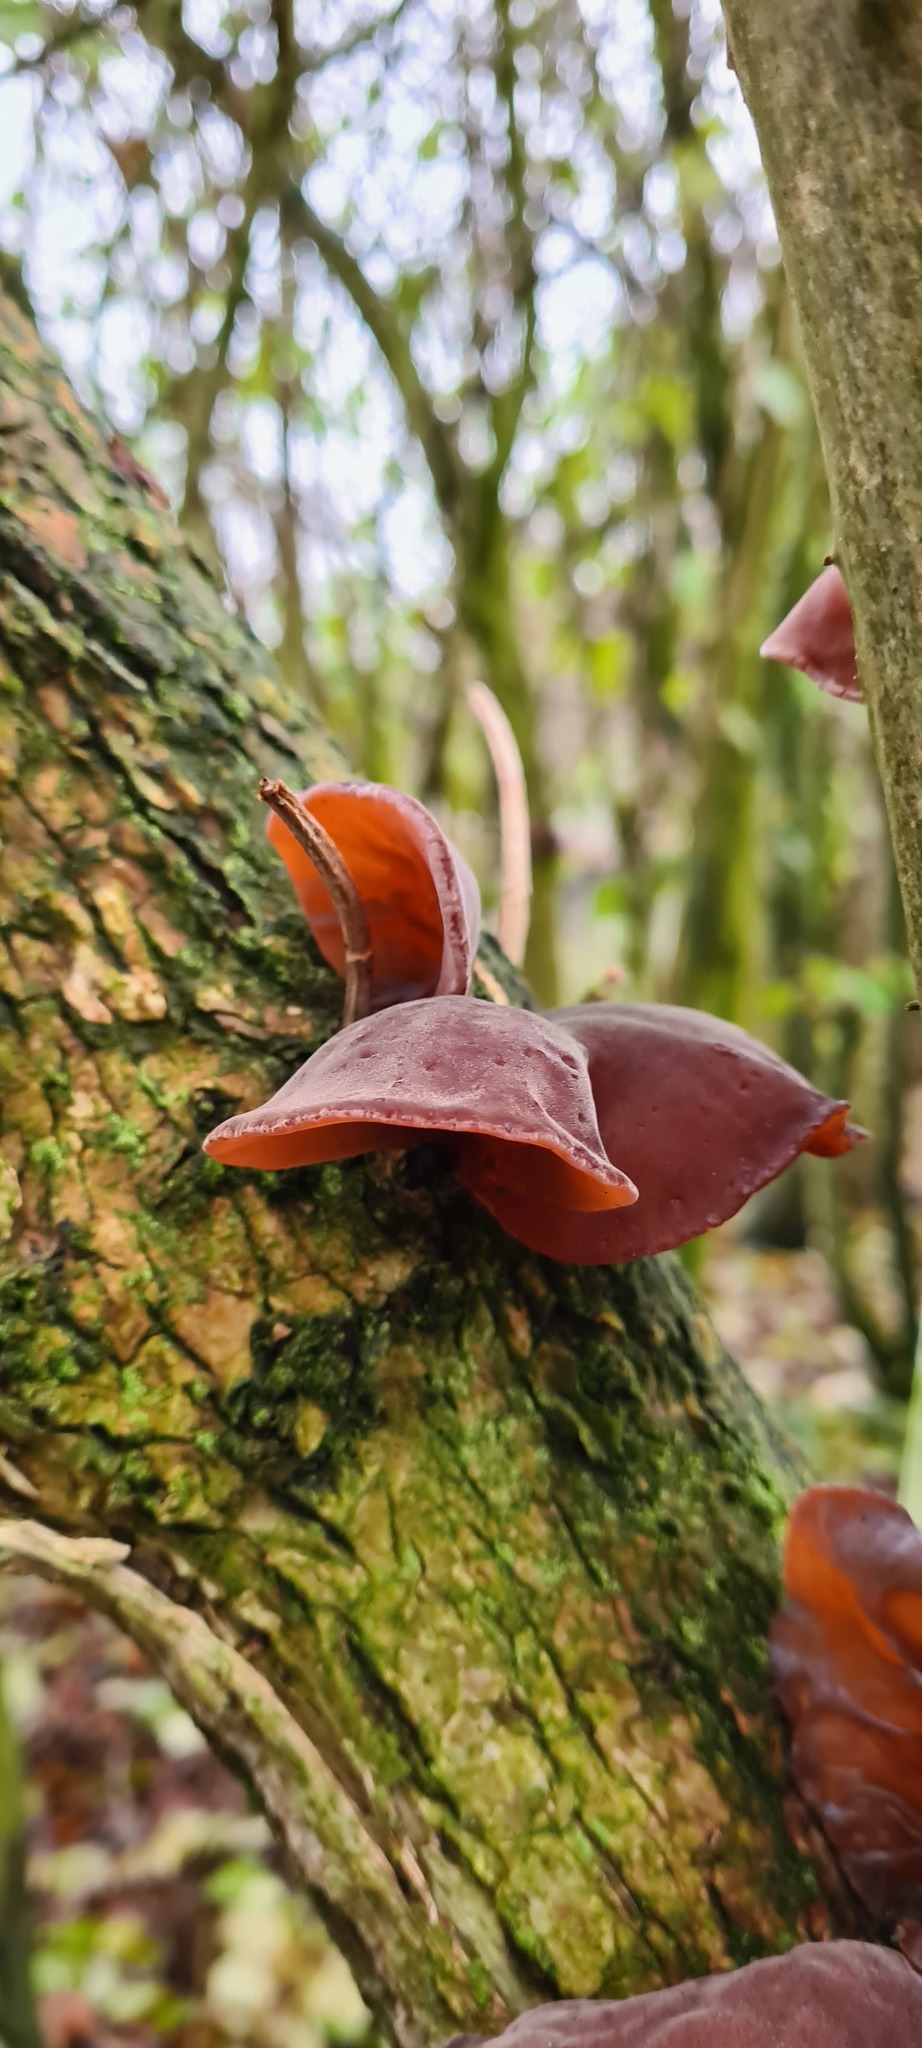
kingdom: Fungi
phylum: Basidiomycota
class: Agaricomycetes
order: Auriculariales
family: Auriculariaceae
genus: Auricularia
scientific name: Auricularia auricula-judae
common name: Jelly ear
